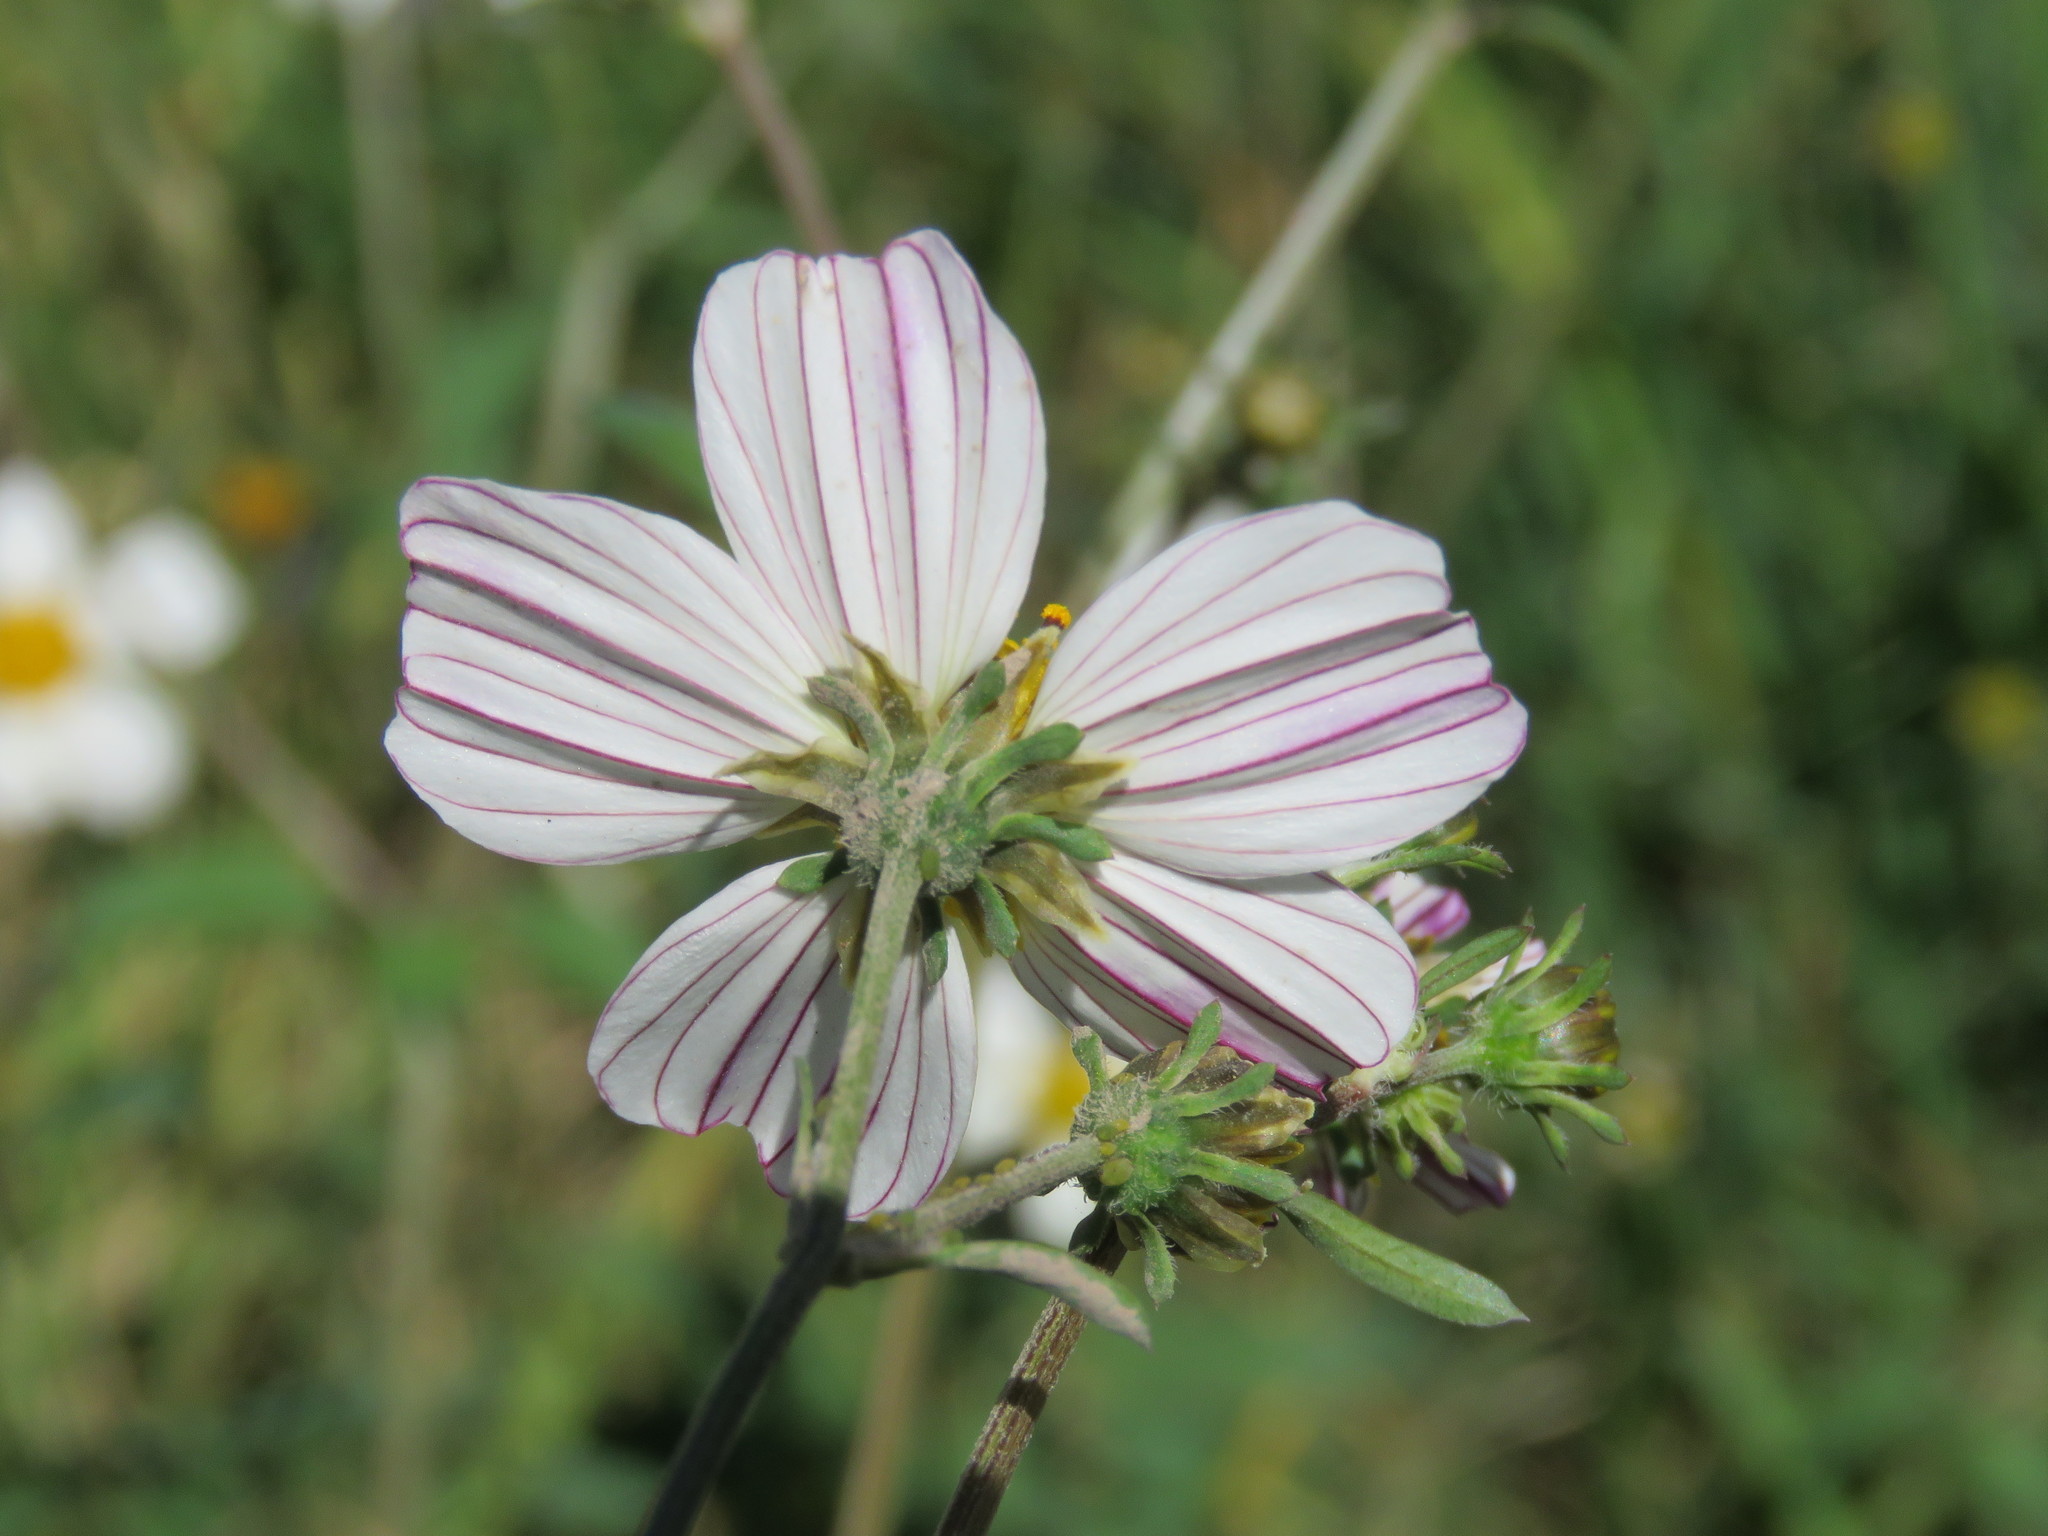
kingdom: Plantae
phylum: Tracheophyta
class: Magnoliopsida
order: Asterales
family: Asteraceae
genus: Bidens
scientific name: Bidens odorata
